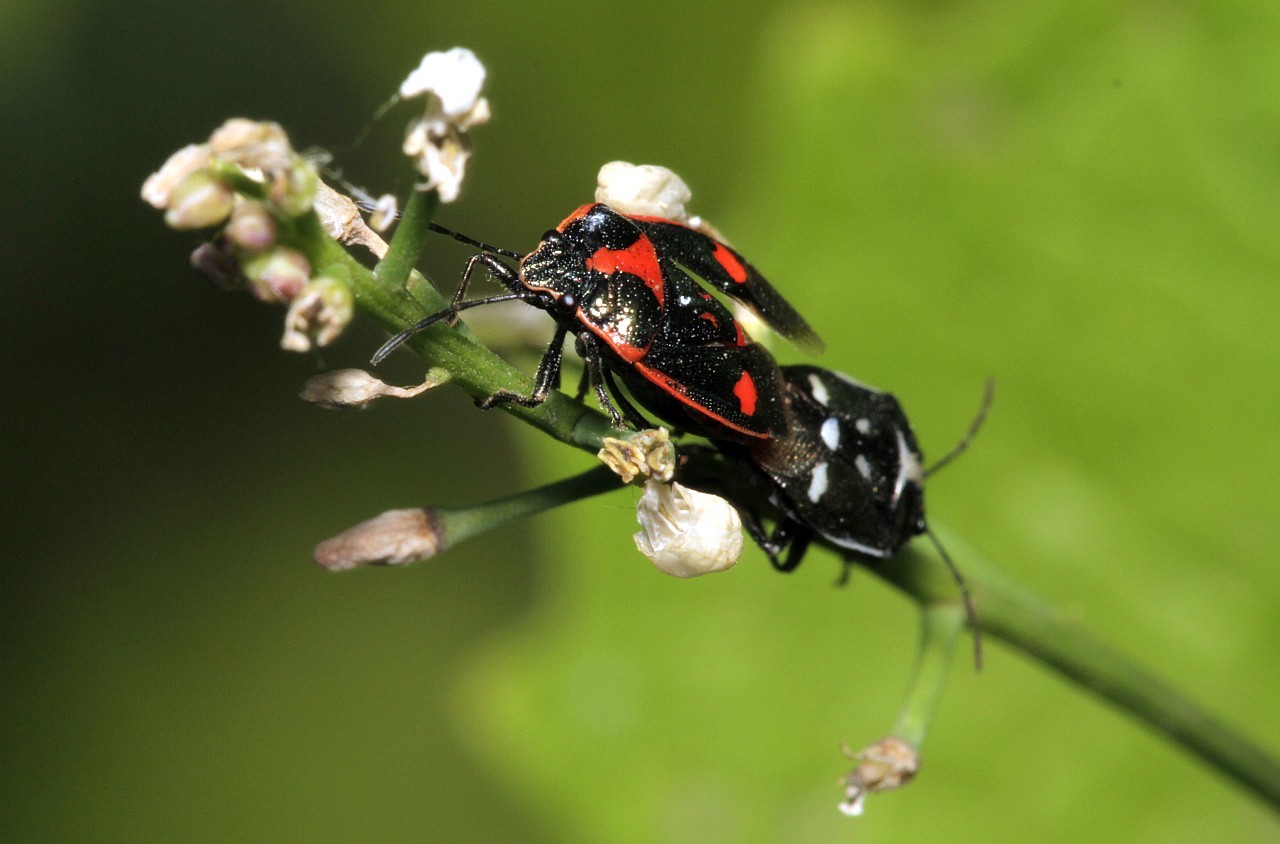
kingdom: Animalia
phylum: Arthropoda
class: Insecta
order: Hemiptera
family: Pentatomidae
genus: Eurydema
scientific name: Eurydema oleracea
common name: Cabbage bug
